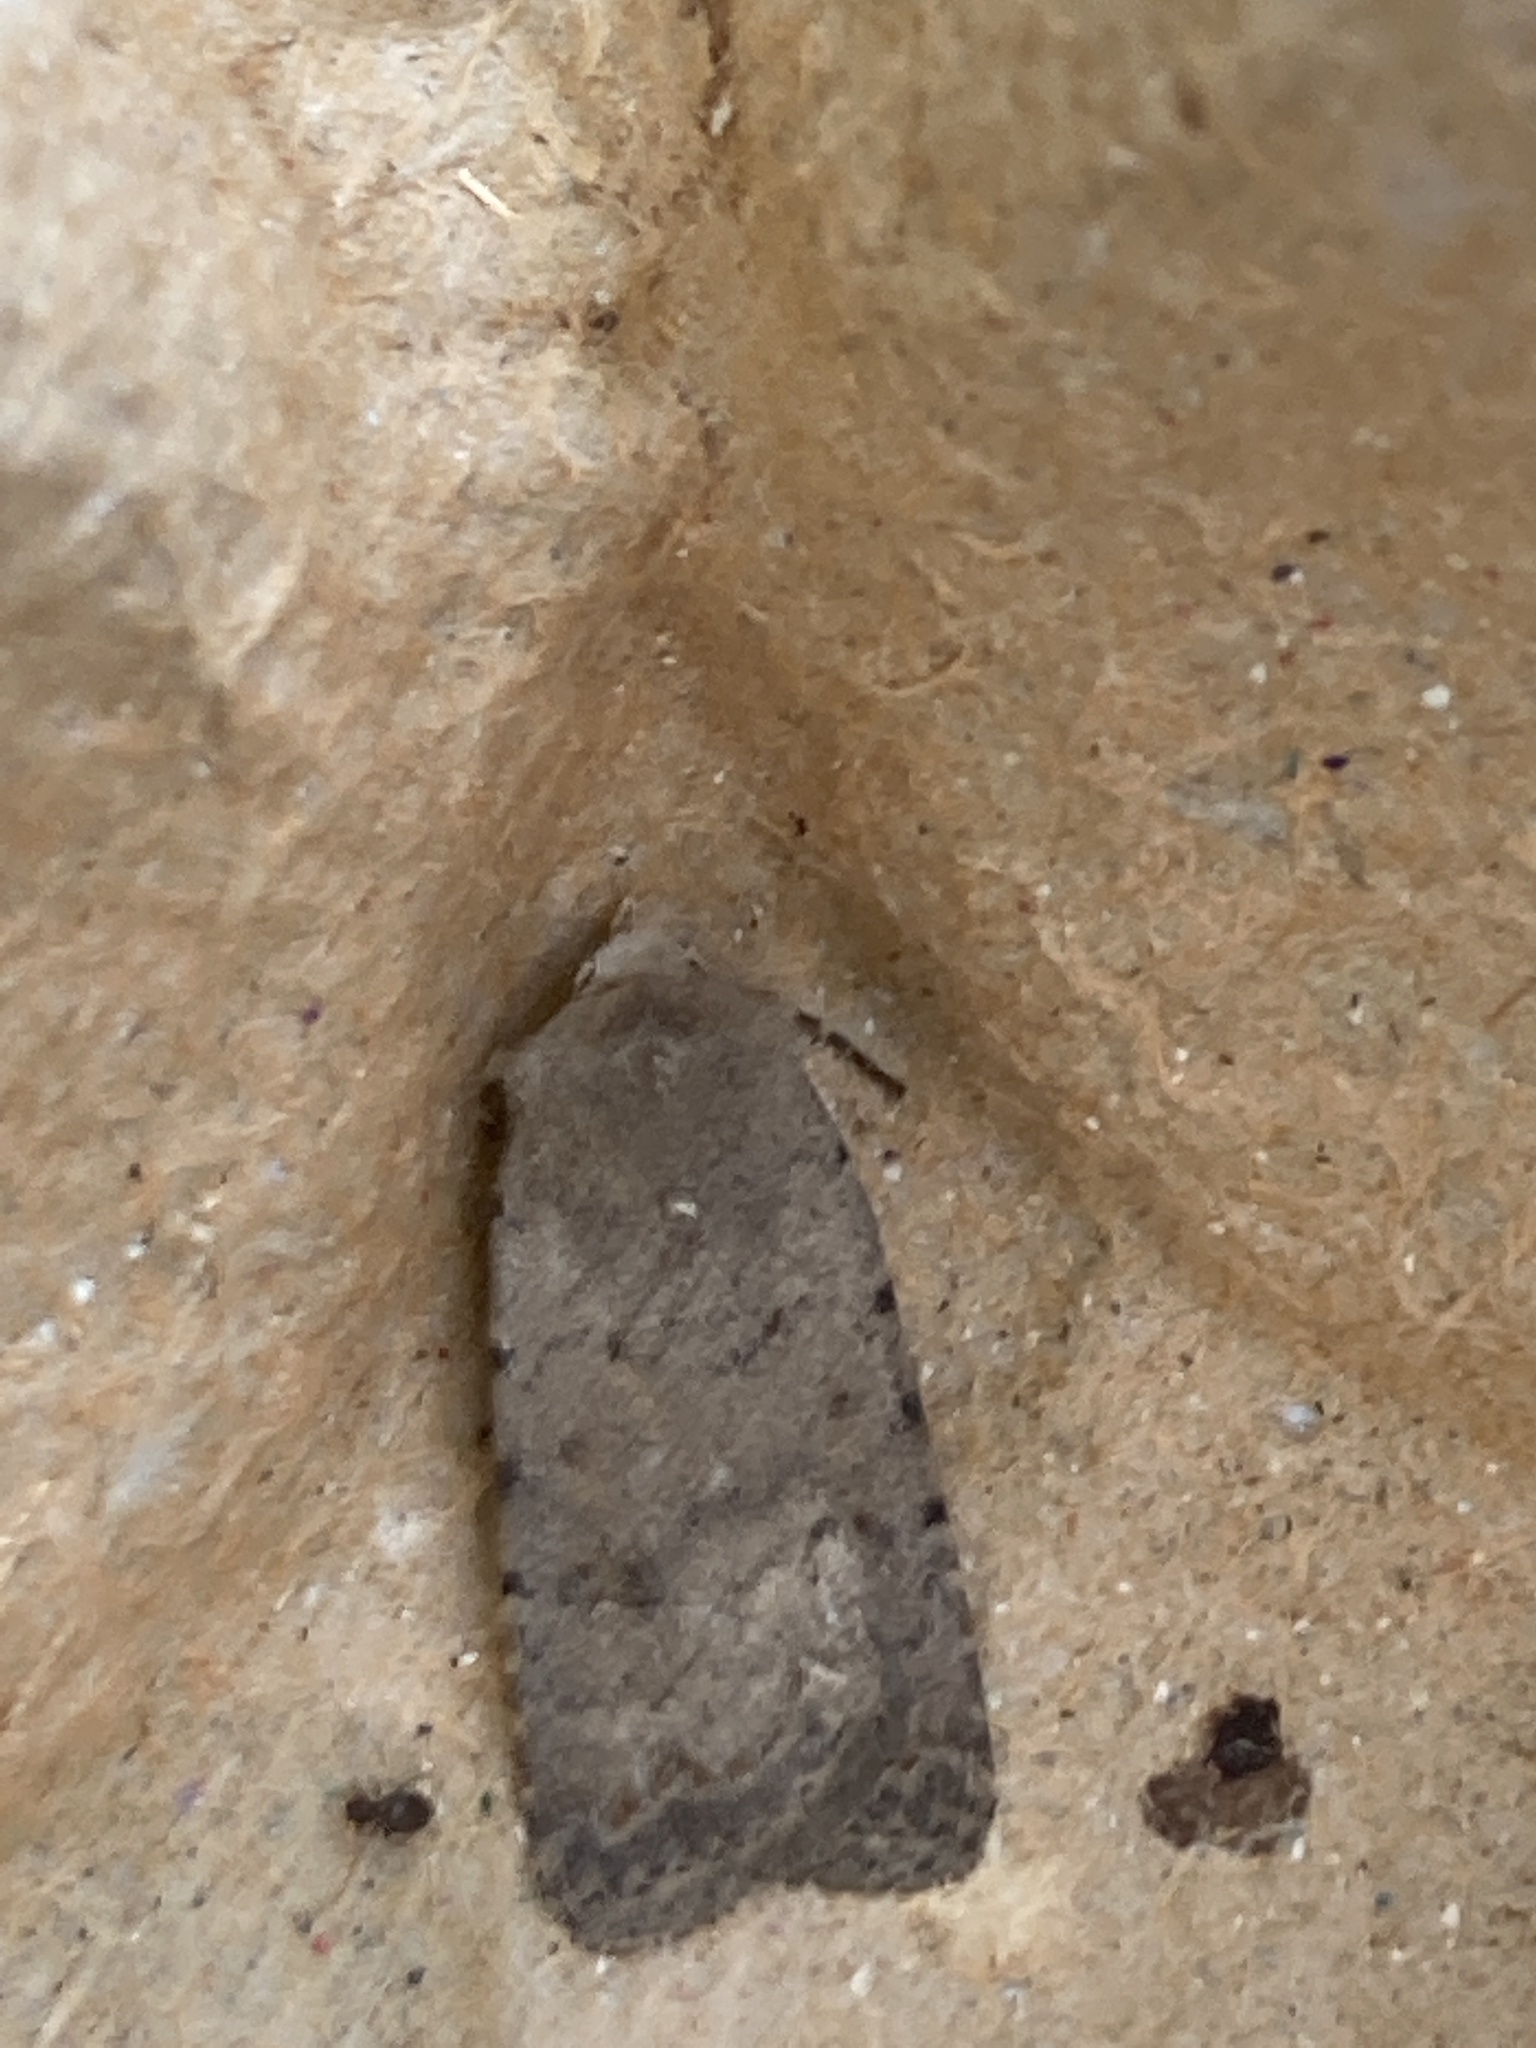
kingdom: Animalia
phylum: Arthropoda
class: Insecta
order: Lepidoptera
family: Noctuidae
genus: Caradrina
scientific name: Caradrina clavipalpis
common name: Pale mottled willow
